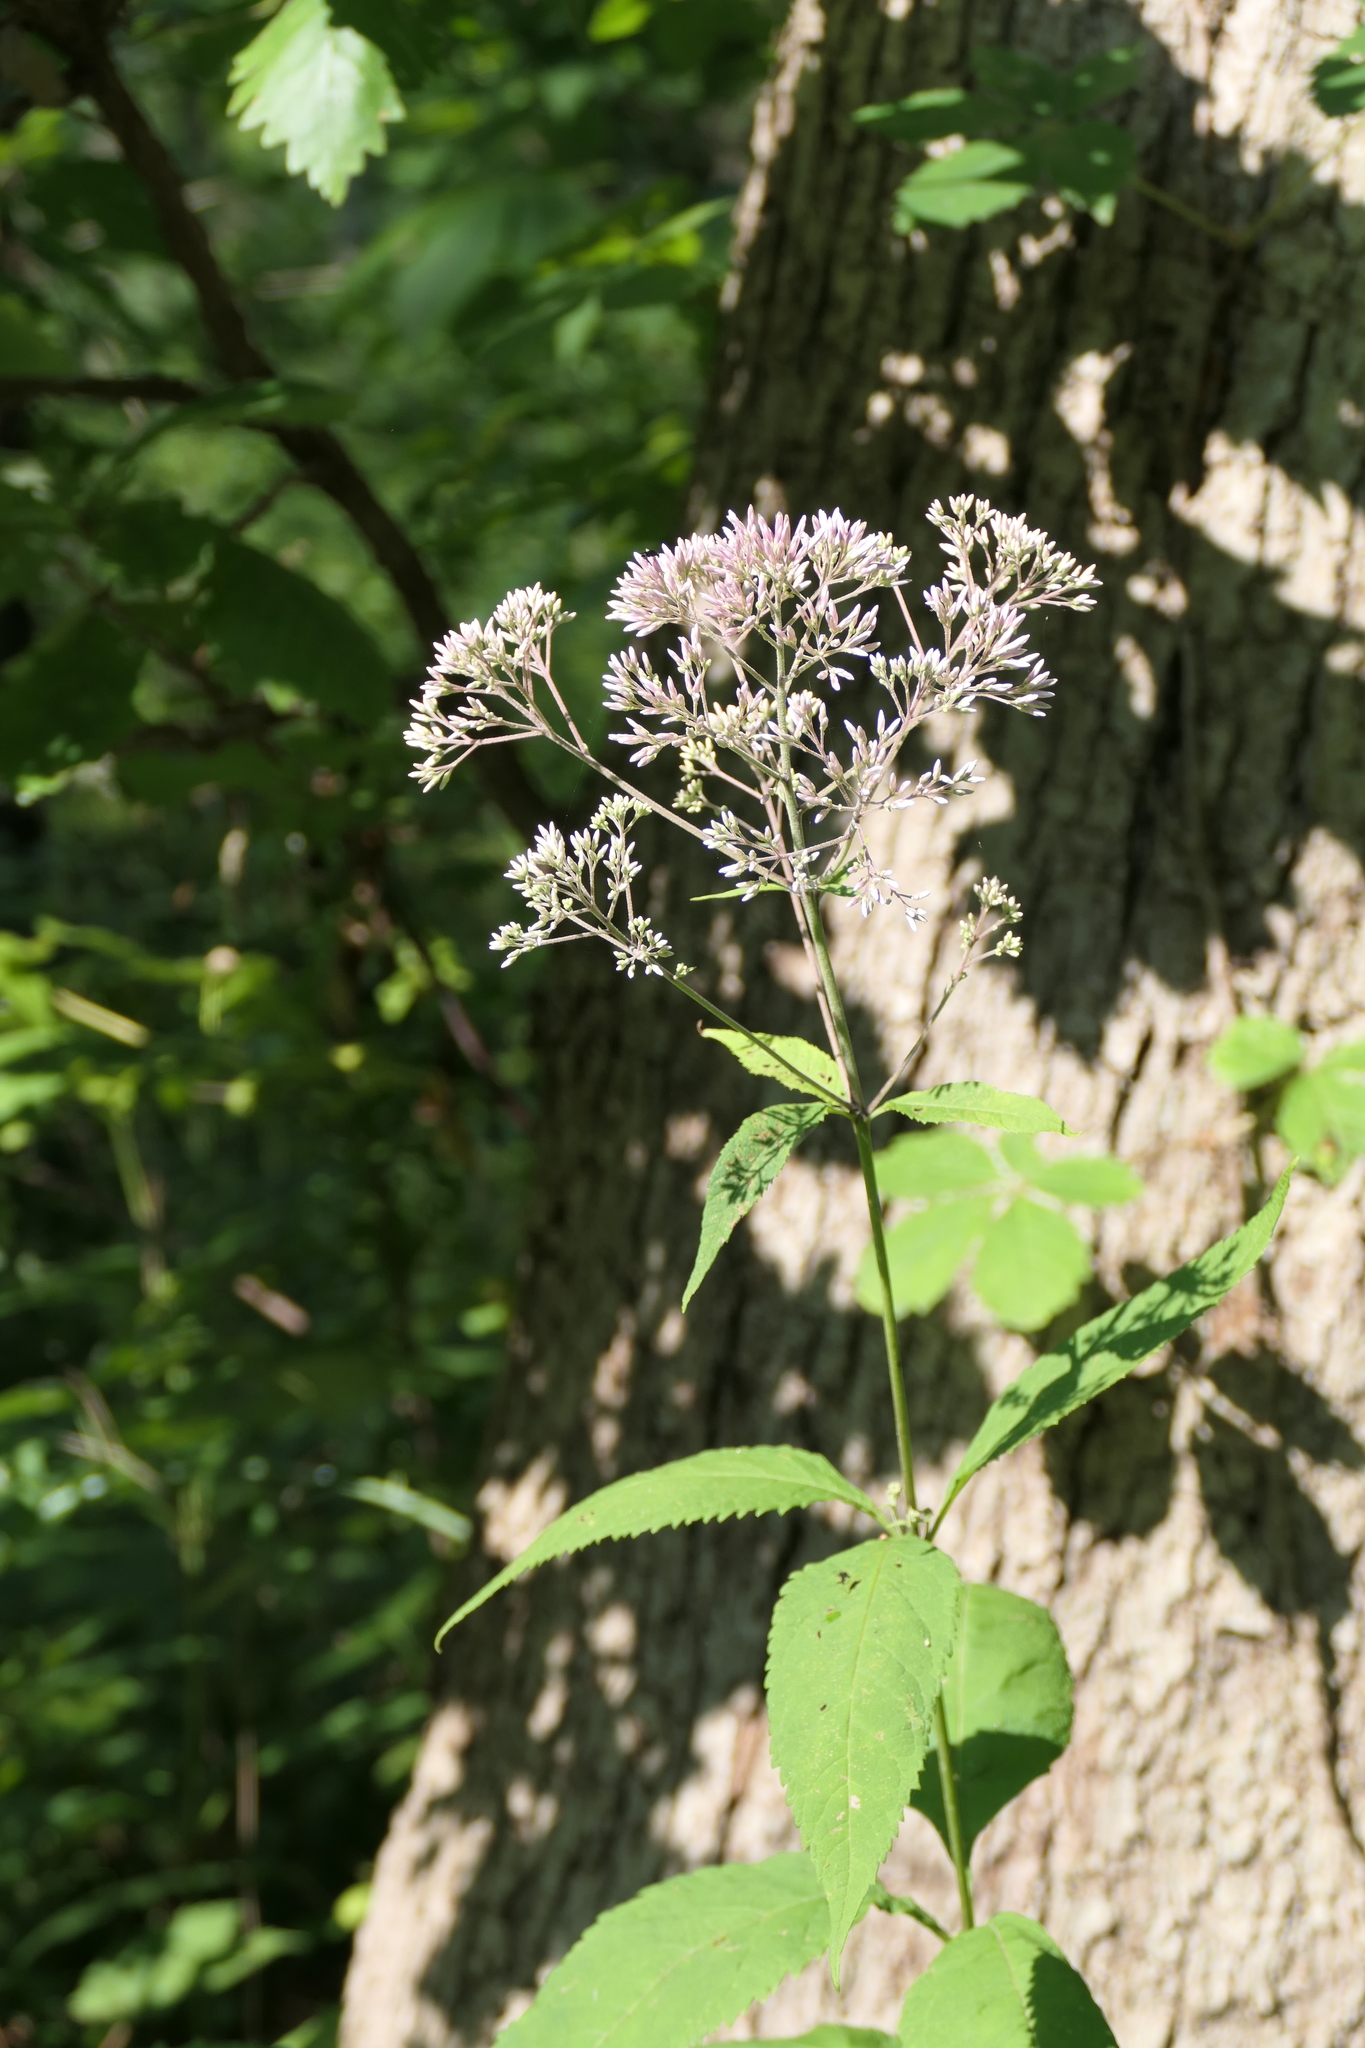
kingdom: Plantae
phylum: Tracheophyta
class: Magnoliopsida
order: Asterales
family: Asteraceae
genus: Eutrochium
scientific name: Eutrochium purpureum
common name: Gravelroot
